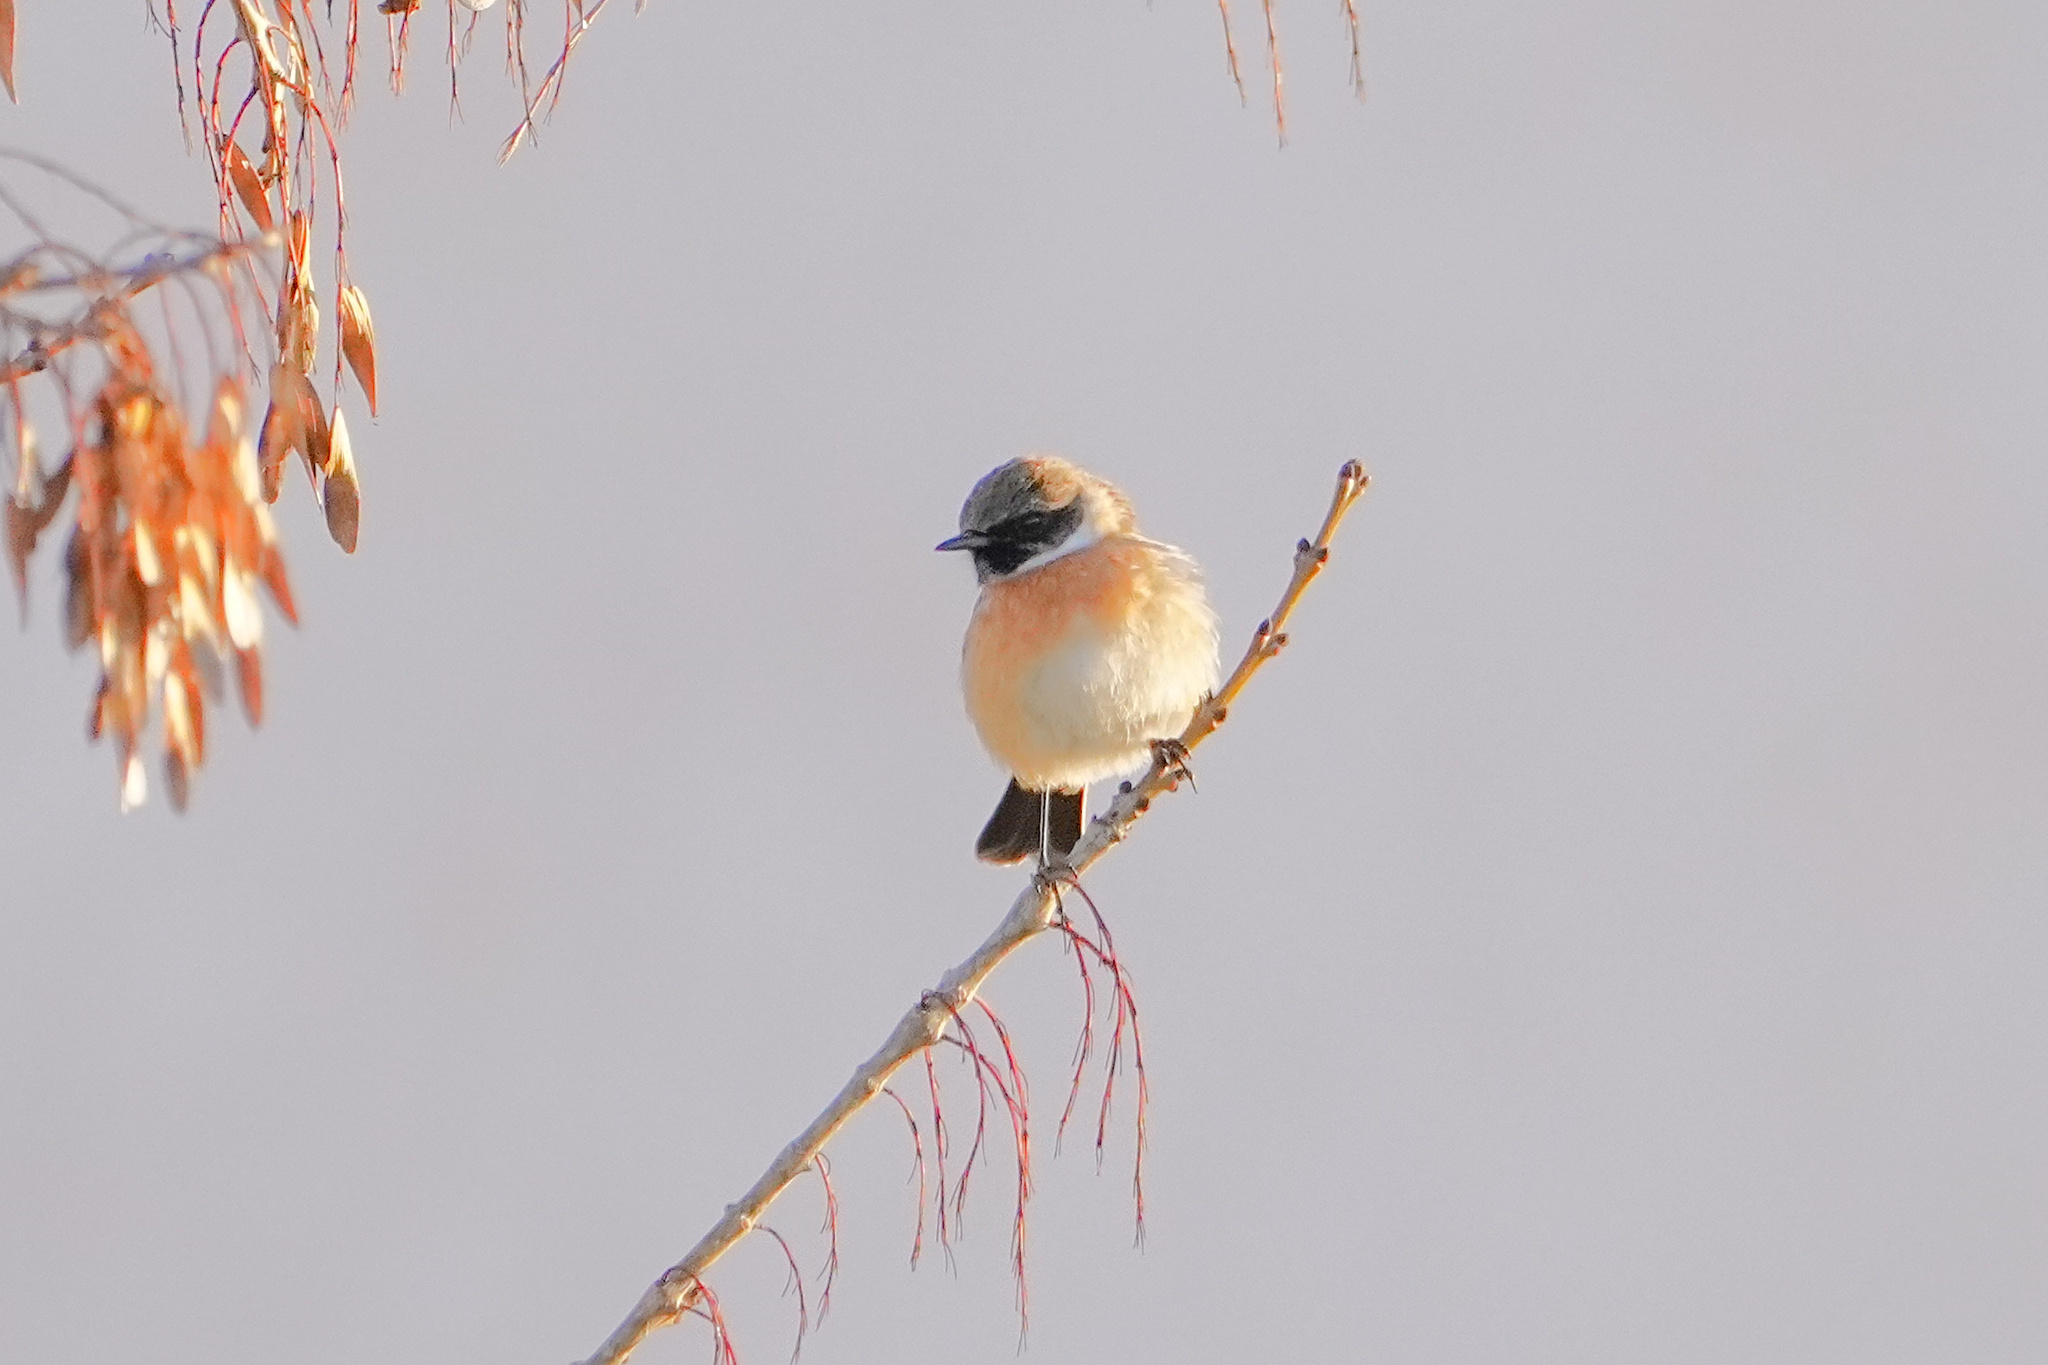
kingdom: Animalia
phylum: Chordata
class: Aves
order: Passeriformes
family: Muscicapidae
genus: Saxicola
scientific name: Saxicola rubicola
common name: European stonechat
